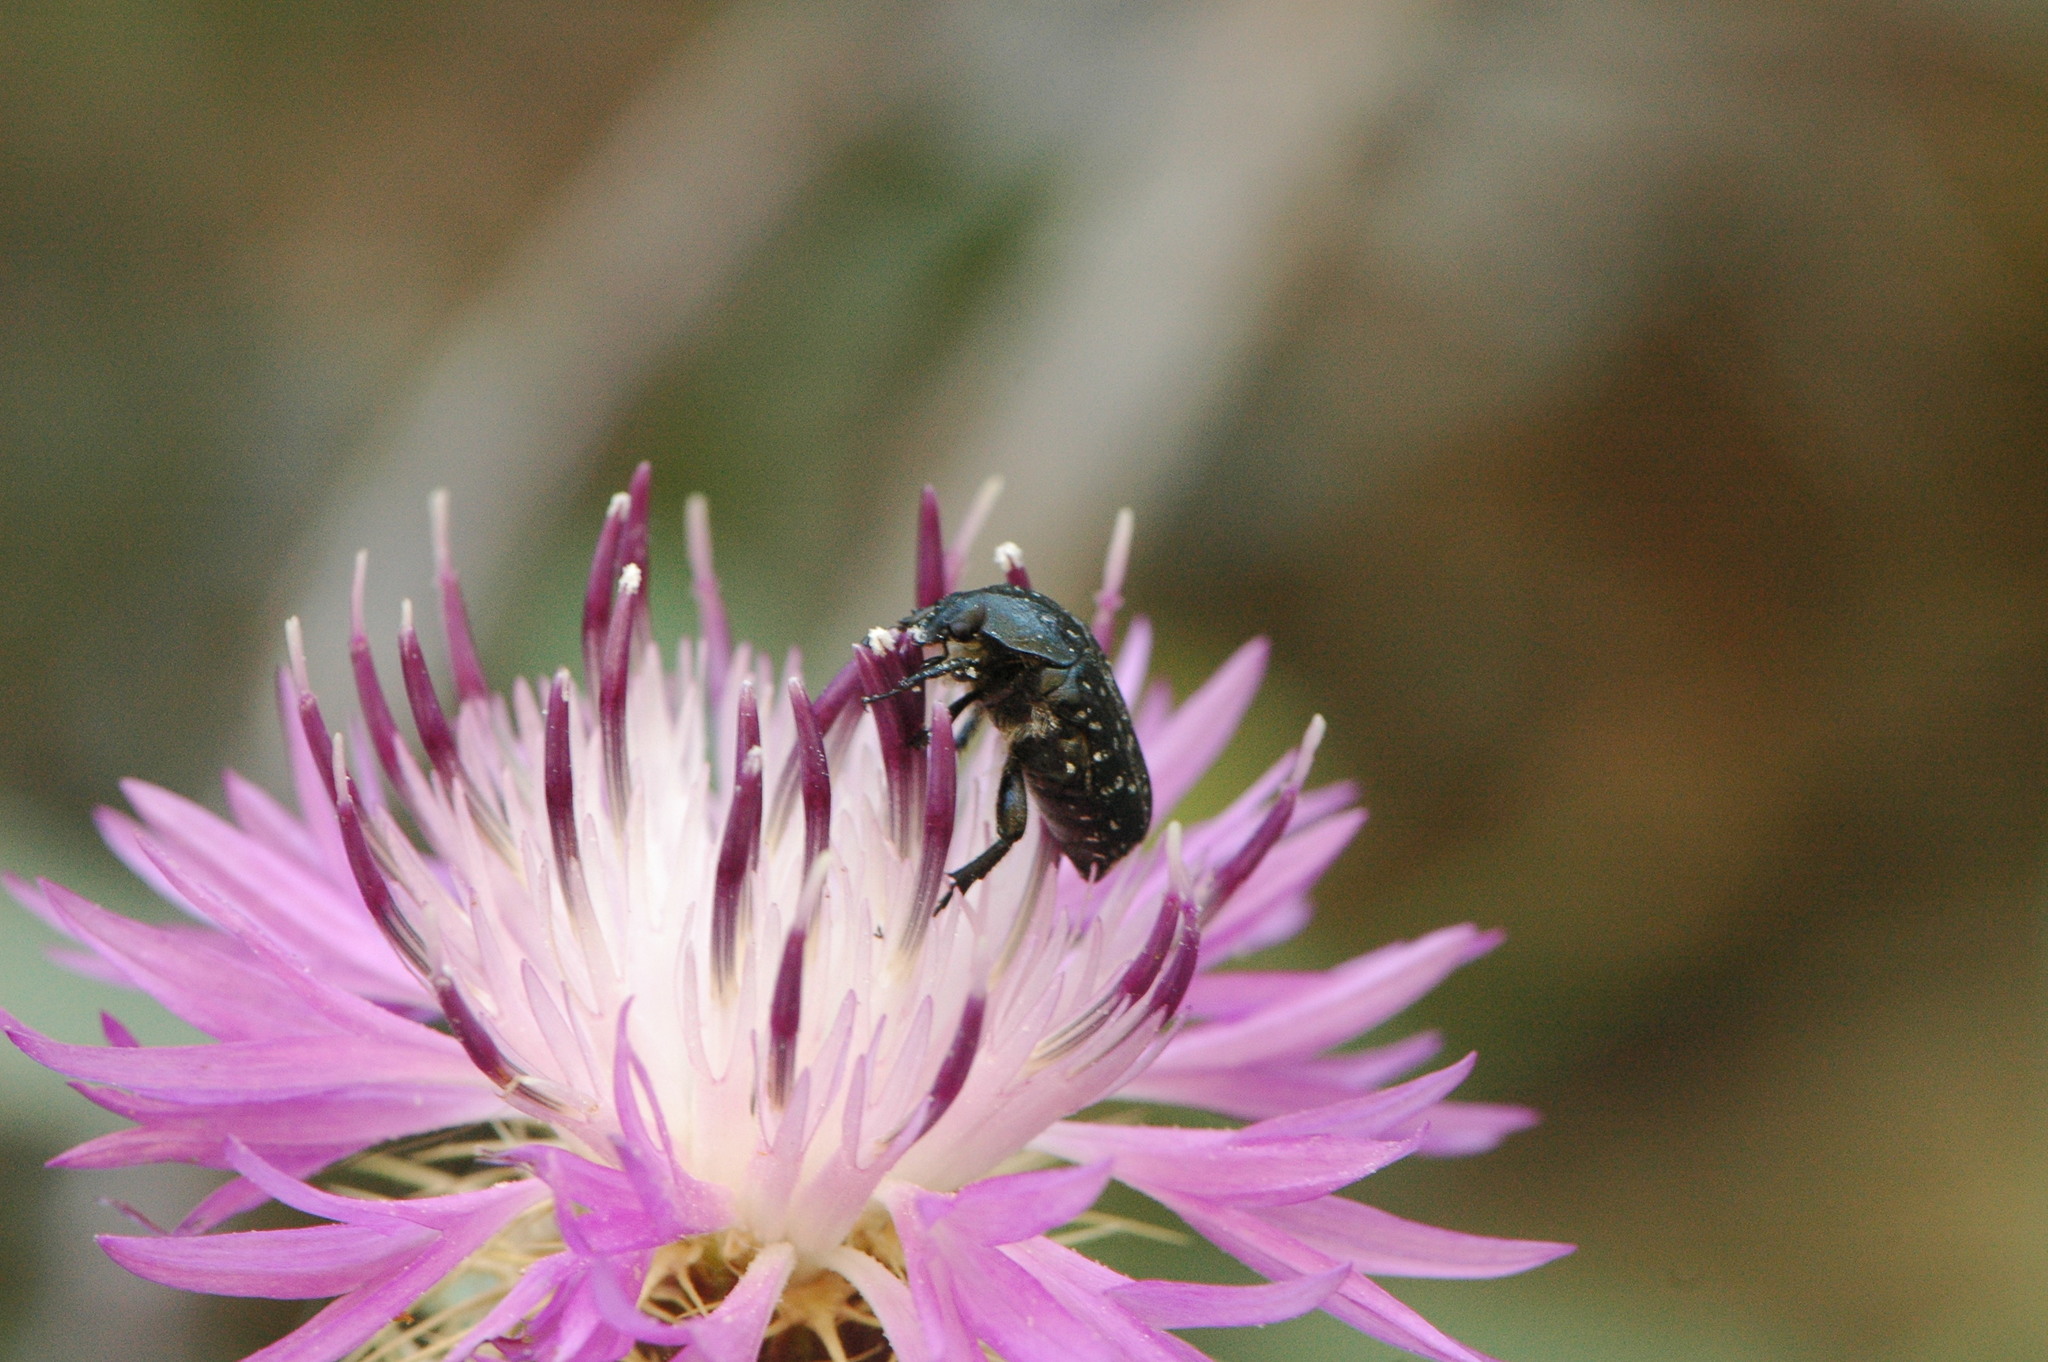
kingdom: Animalia
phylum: Arthropoda
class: Insecta
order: Coleoptera
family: Scarabaeidae
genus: Oxythyrea
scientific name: Oxythyrea funesta
